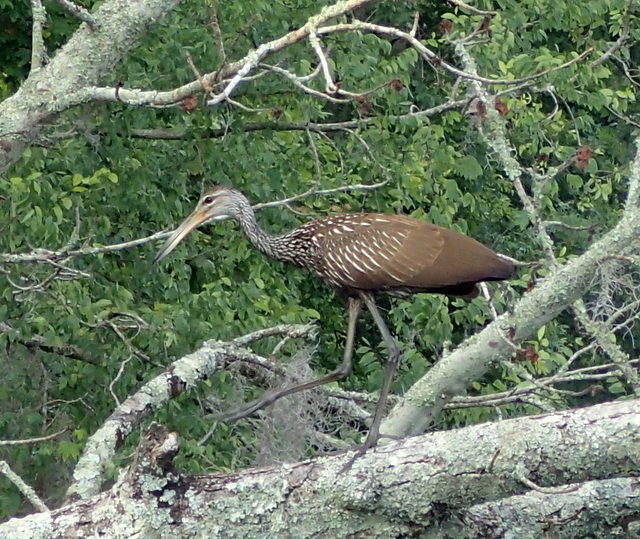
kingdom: Animalia
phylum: Chordata
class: Aves
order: Gruiformes
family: Aramidae
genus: Aramus
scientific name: Aramus guarauna
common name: Limpkin
